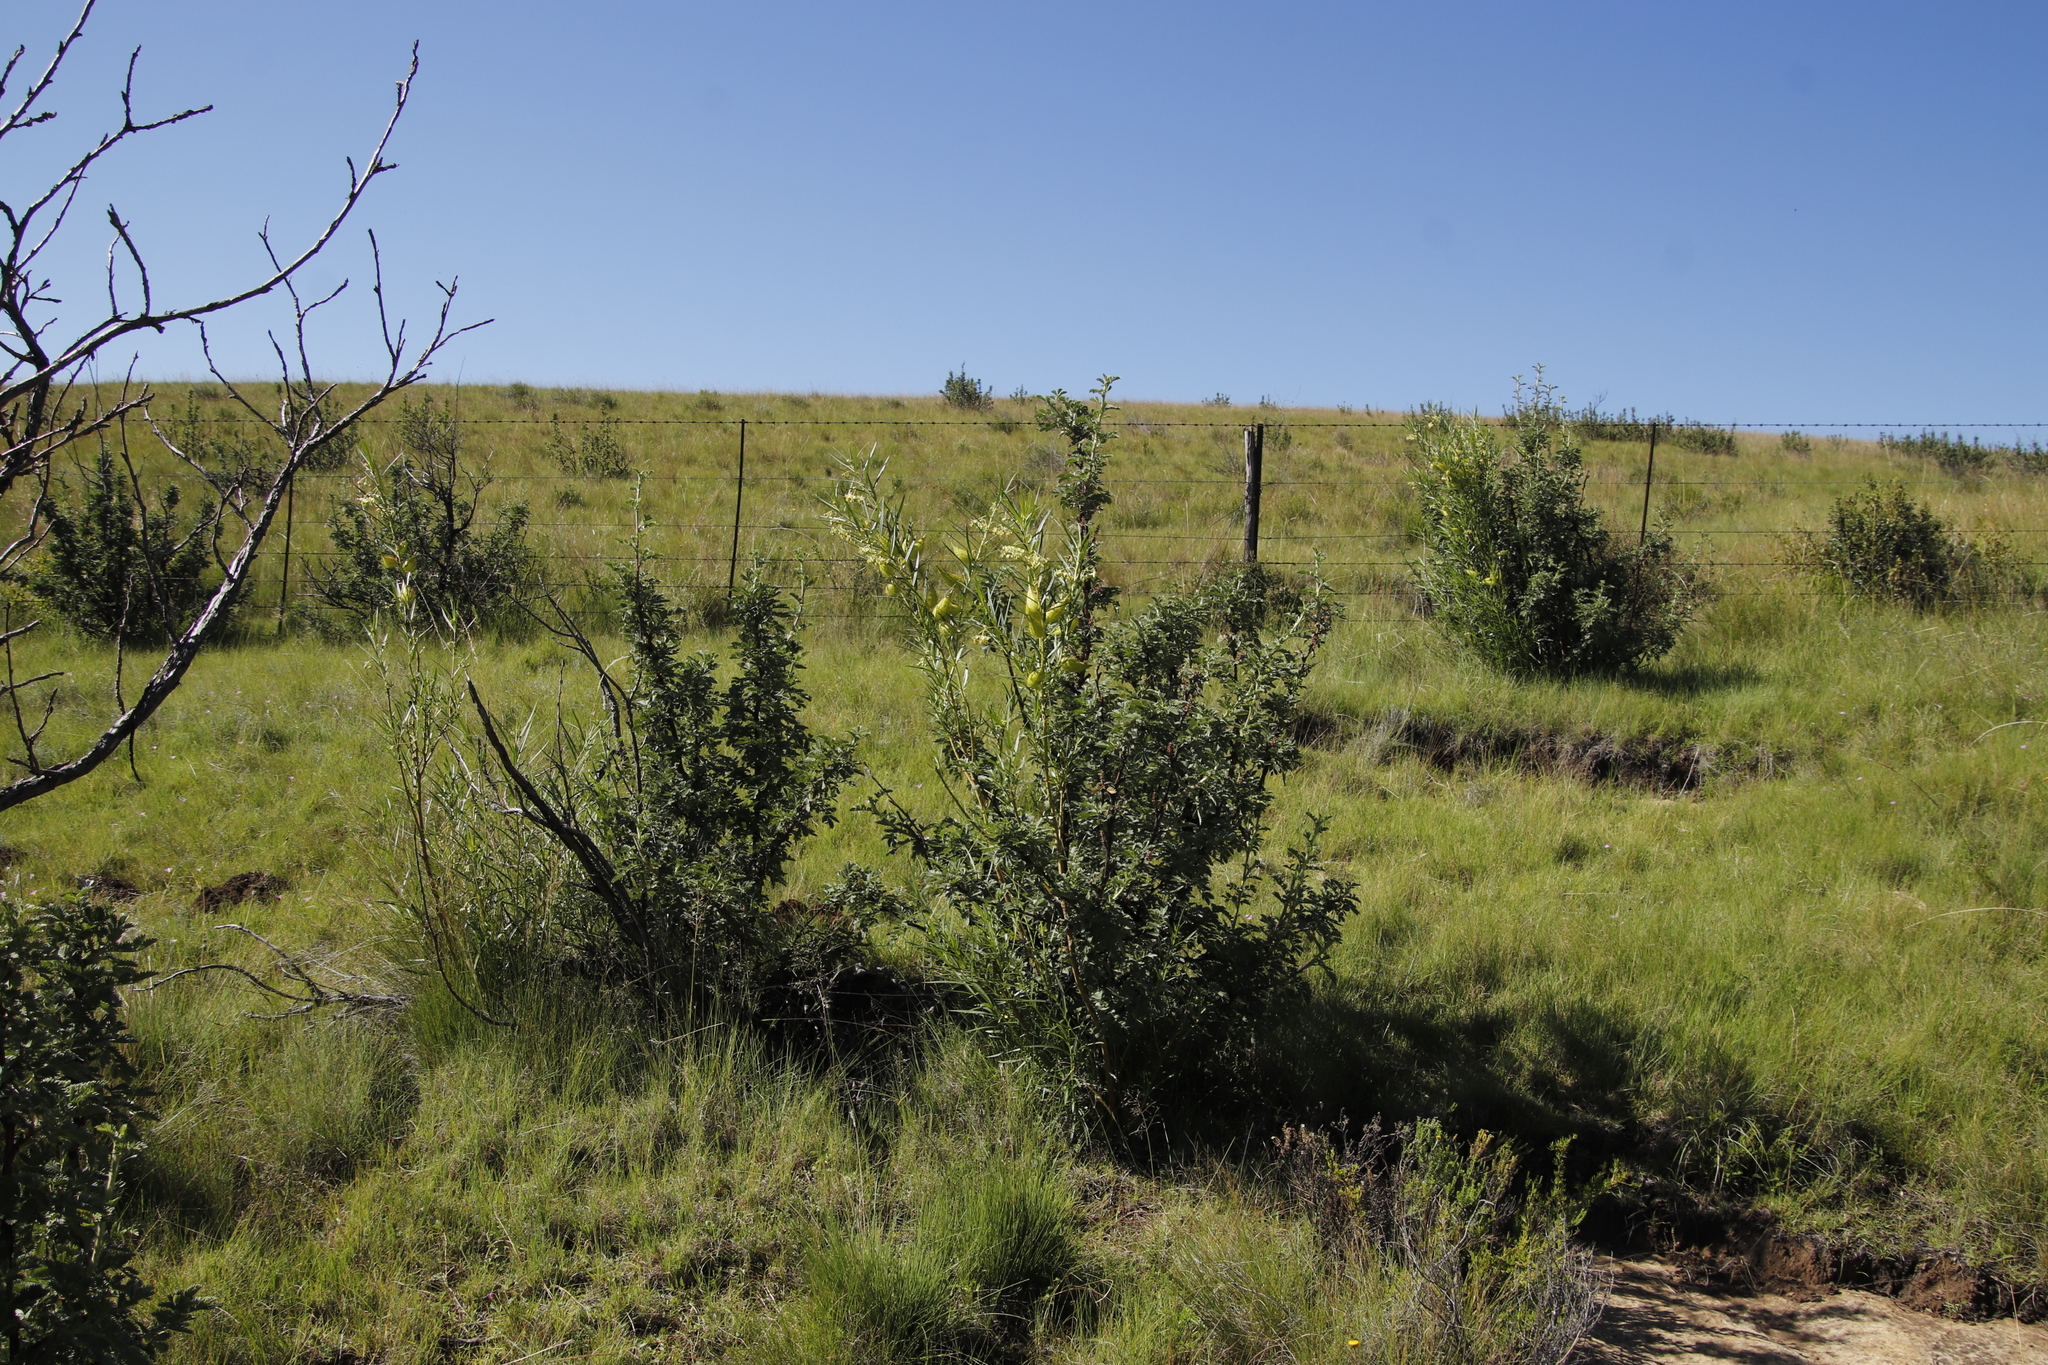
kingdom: Plantae
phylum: Tracheophyta
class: Magnoliopsida
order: Gentianales
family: Apocynaceae
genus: Gomphocarpus
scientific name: Gomphocarpus fruticosus
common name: Milkweed
